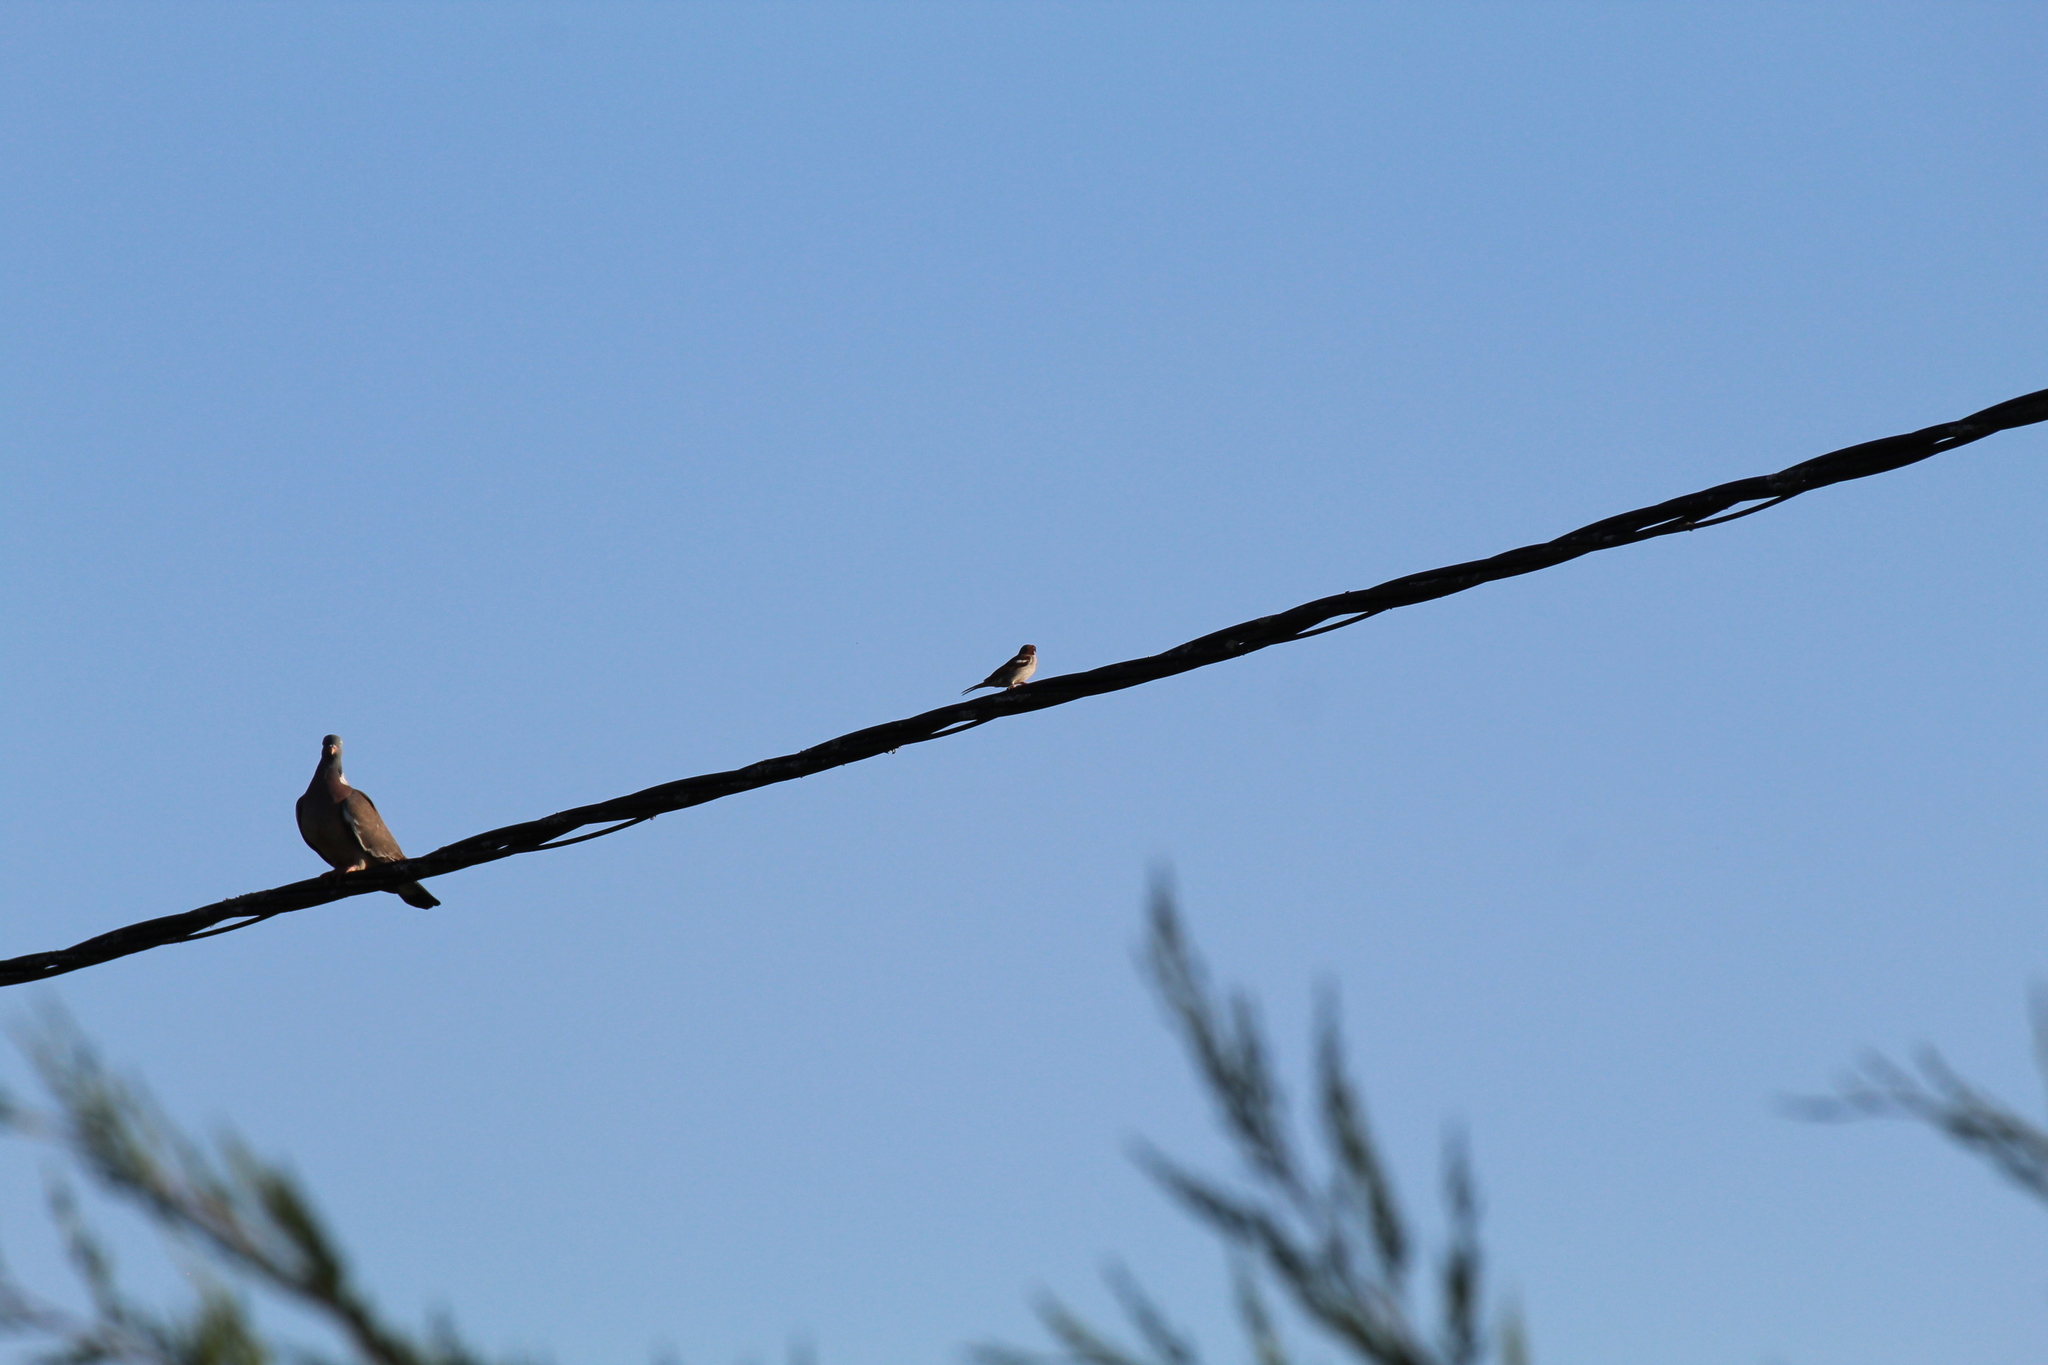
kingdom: Animalia
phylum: Chordata
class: Aves
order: Passeriformes
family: Passeridae
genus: Passer
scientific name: Passer domesticus
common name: House sparrow
